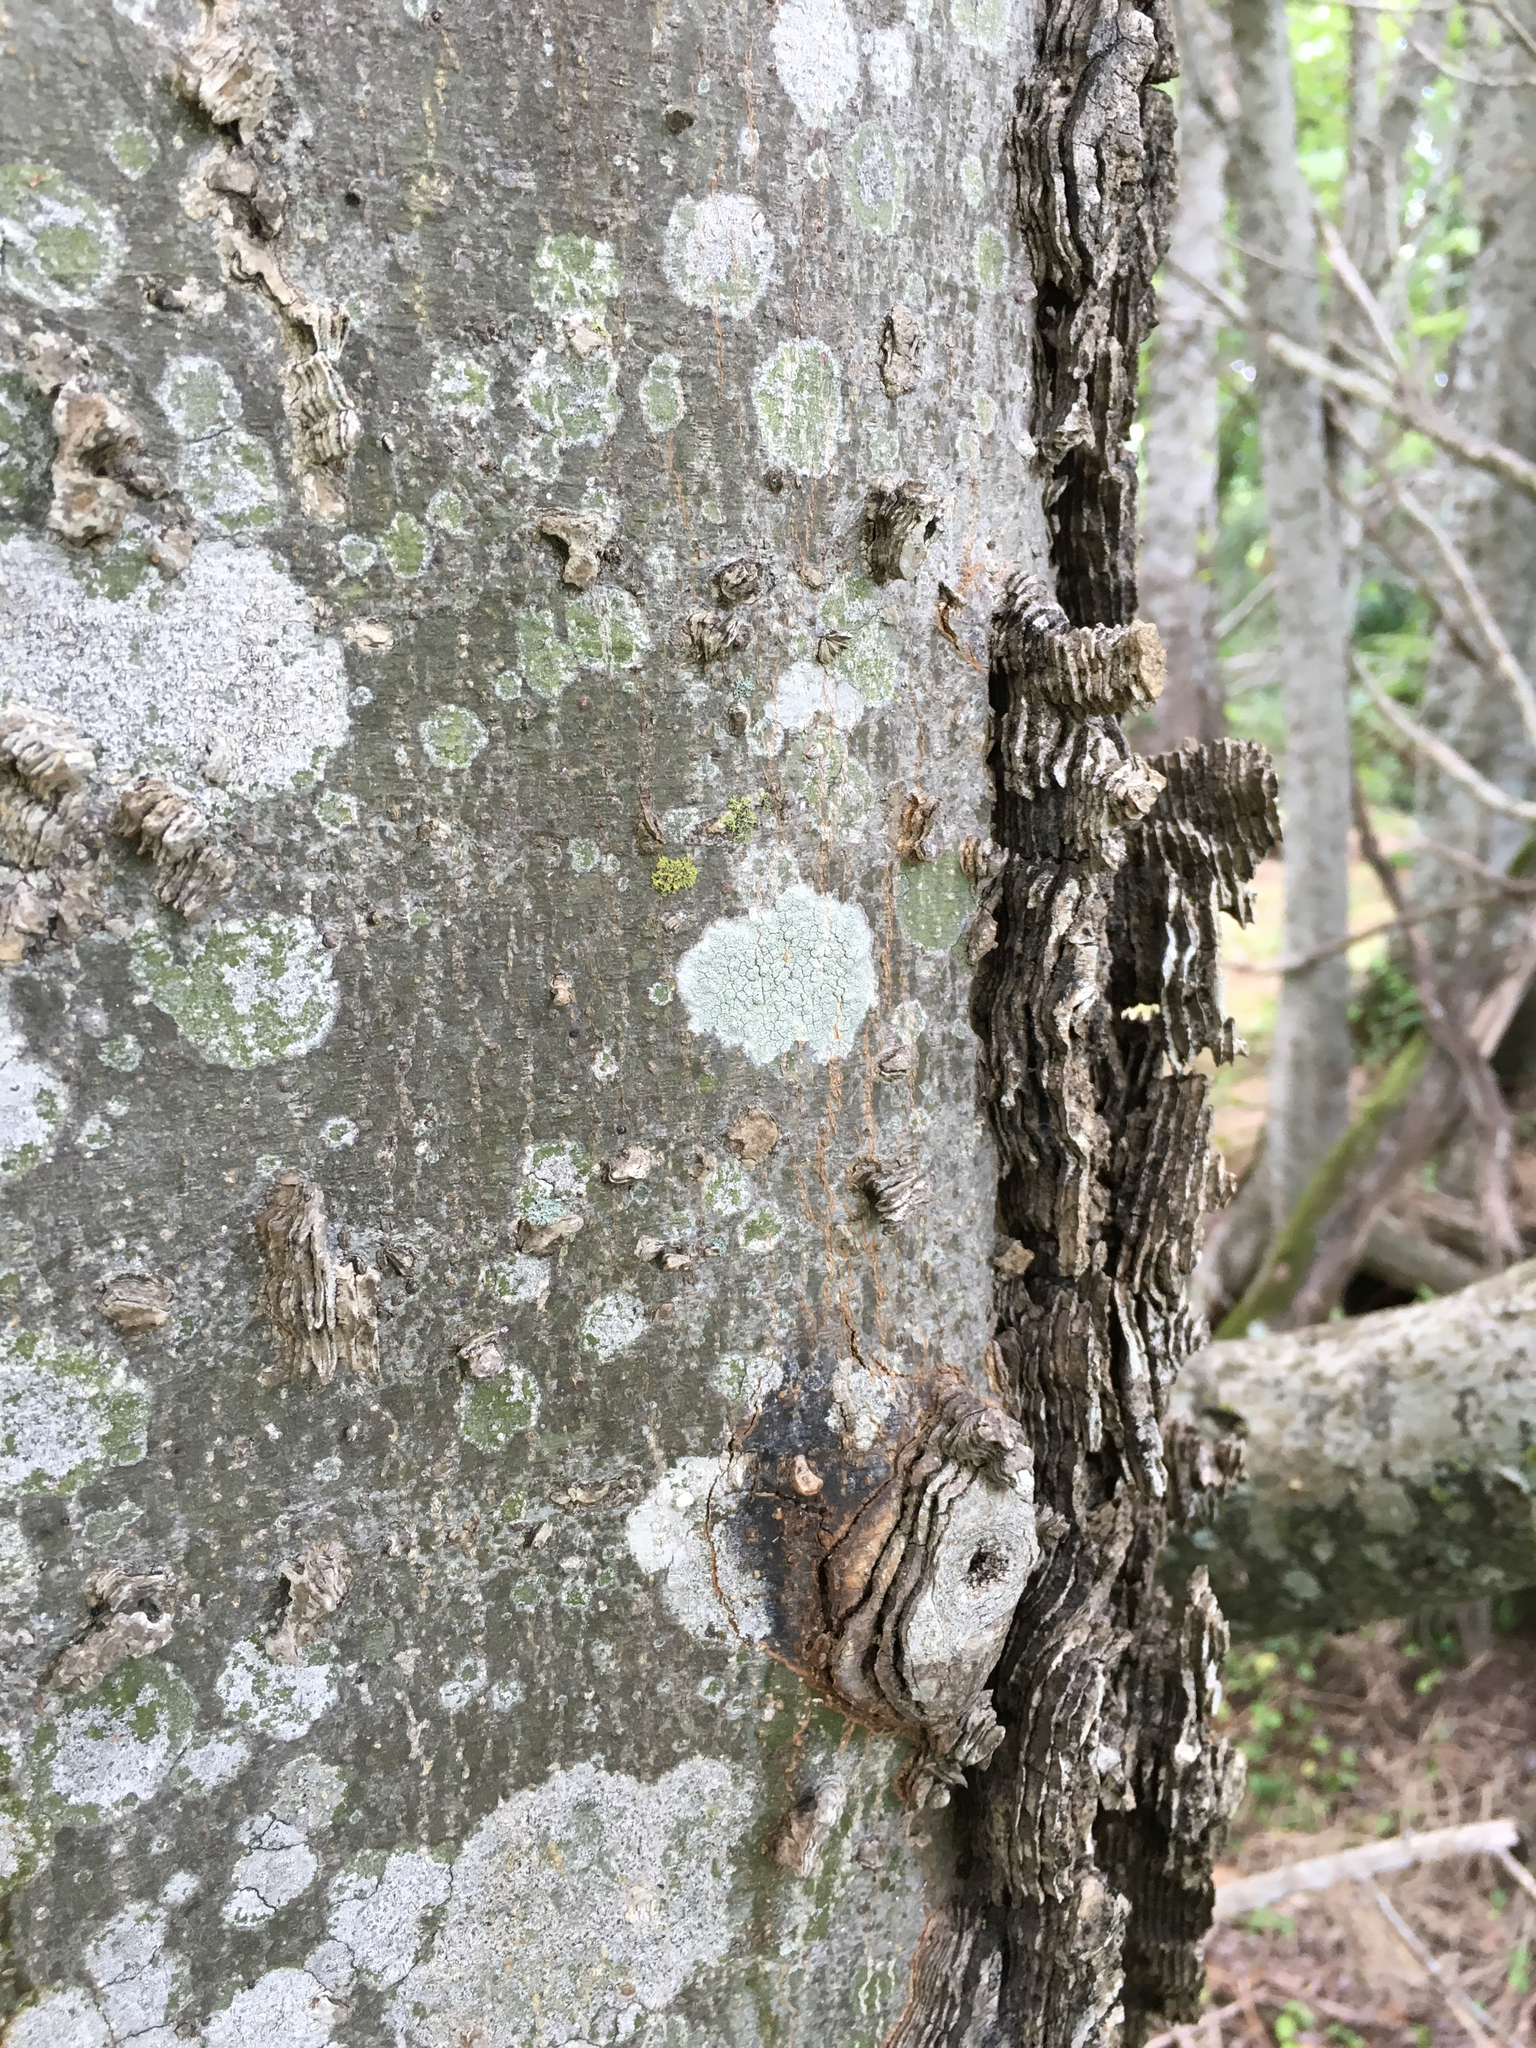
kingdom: Plantae
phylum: Tracheophyta
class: Magnoliopsida
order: Rosales
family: Cannabaceae
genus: Celtis
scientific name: Celtis laevigata
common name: Sugarberry
